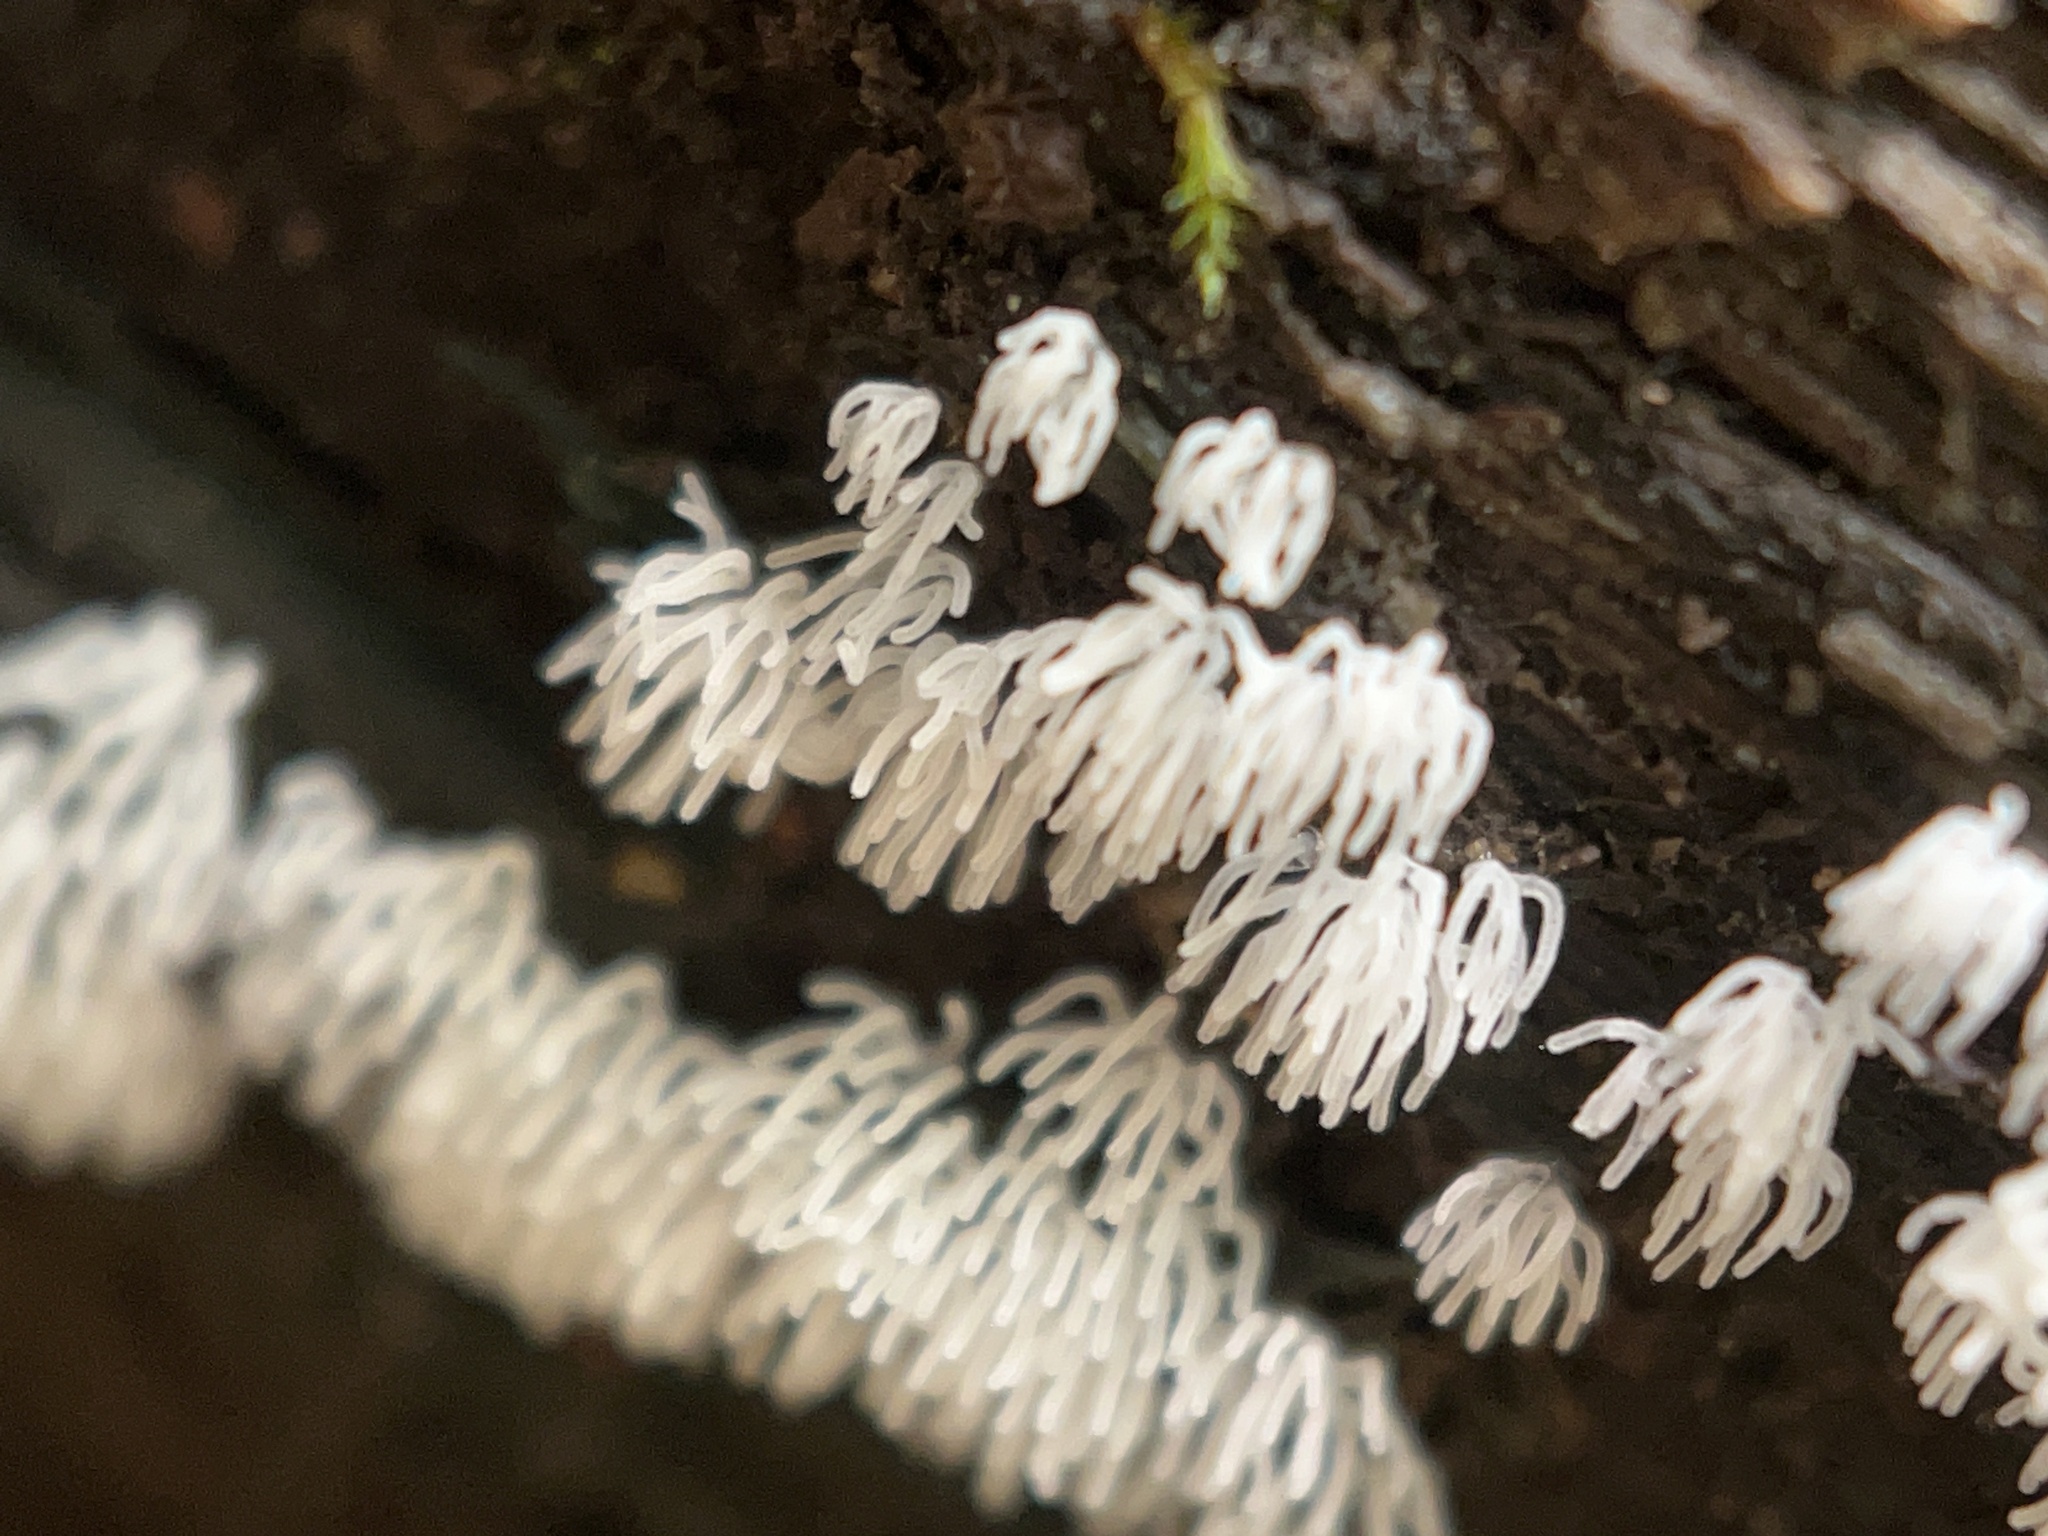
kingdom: Protozoa
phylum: Mycetozoa
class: Protosteliomycetes
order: Ceratiomyxales
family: Ceratiomyxaceae
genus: Ceratiomyxa
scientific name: Ceratiomyxa fruticulosa
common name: Honeycomb coral slime mold
